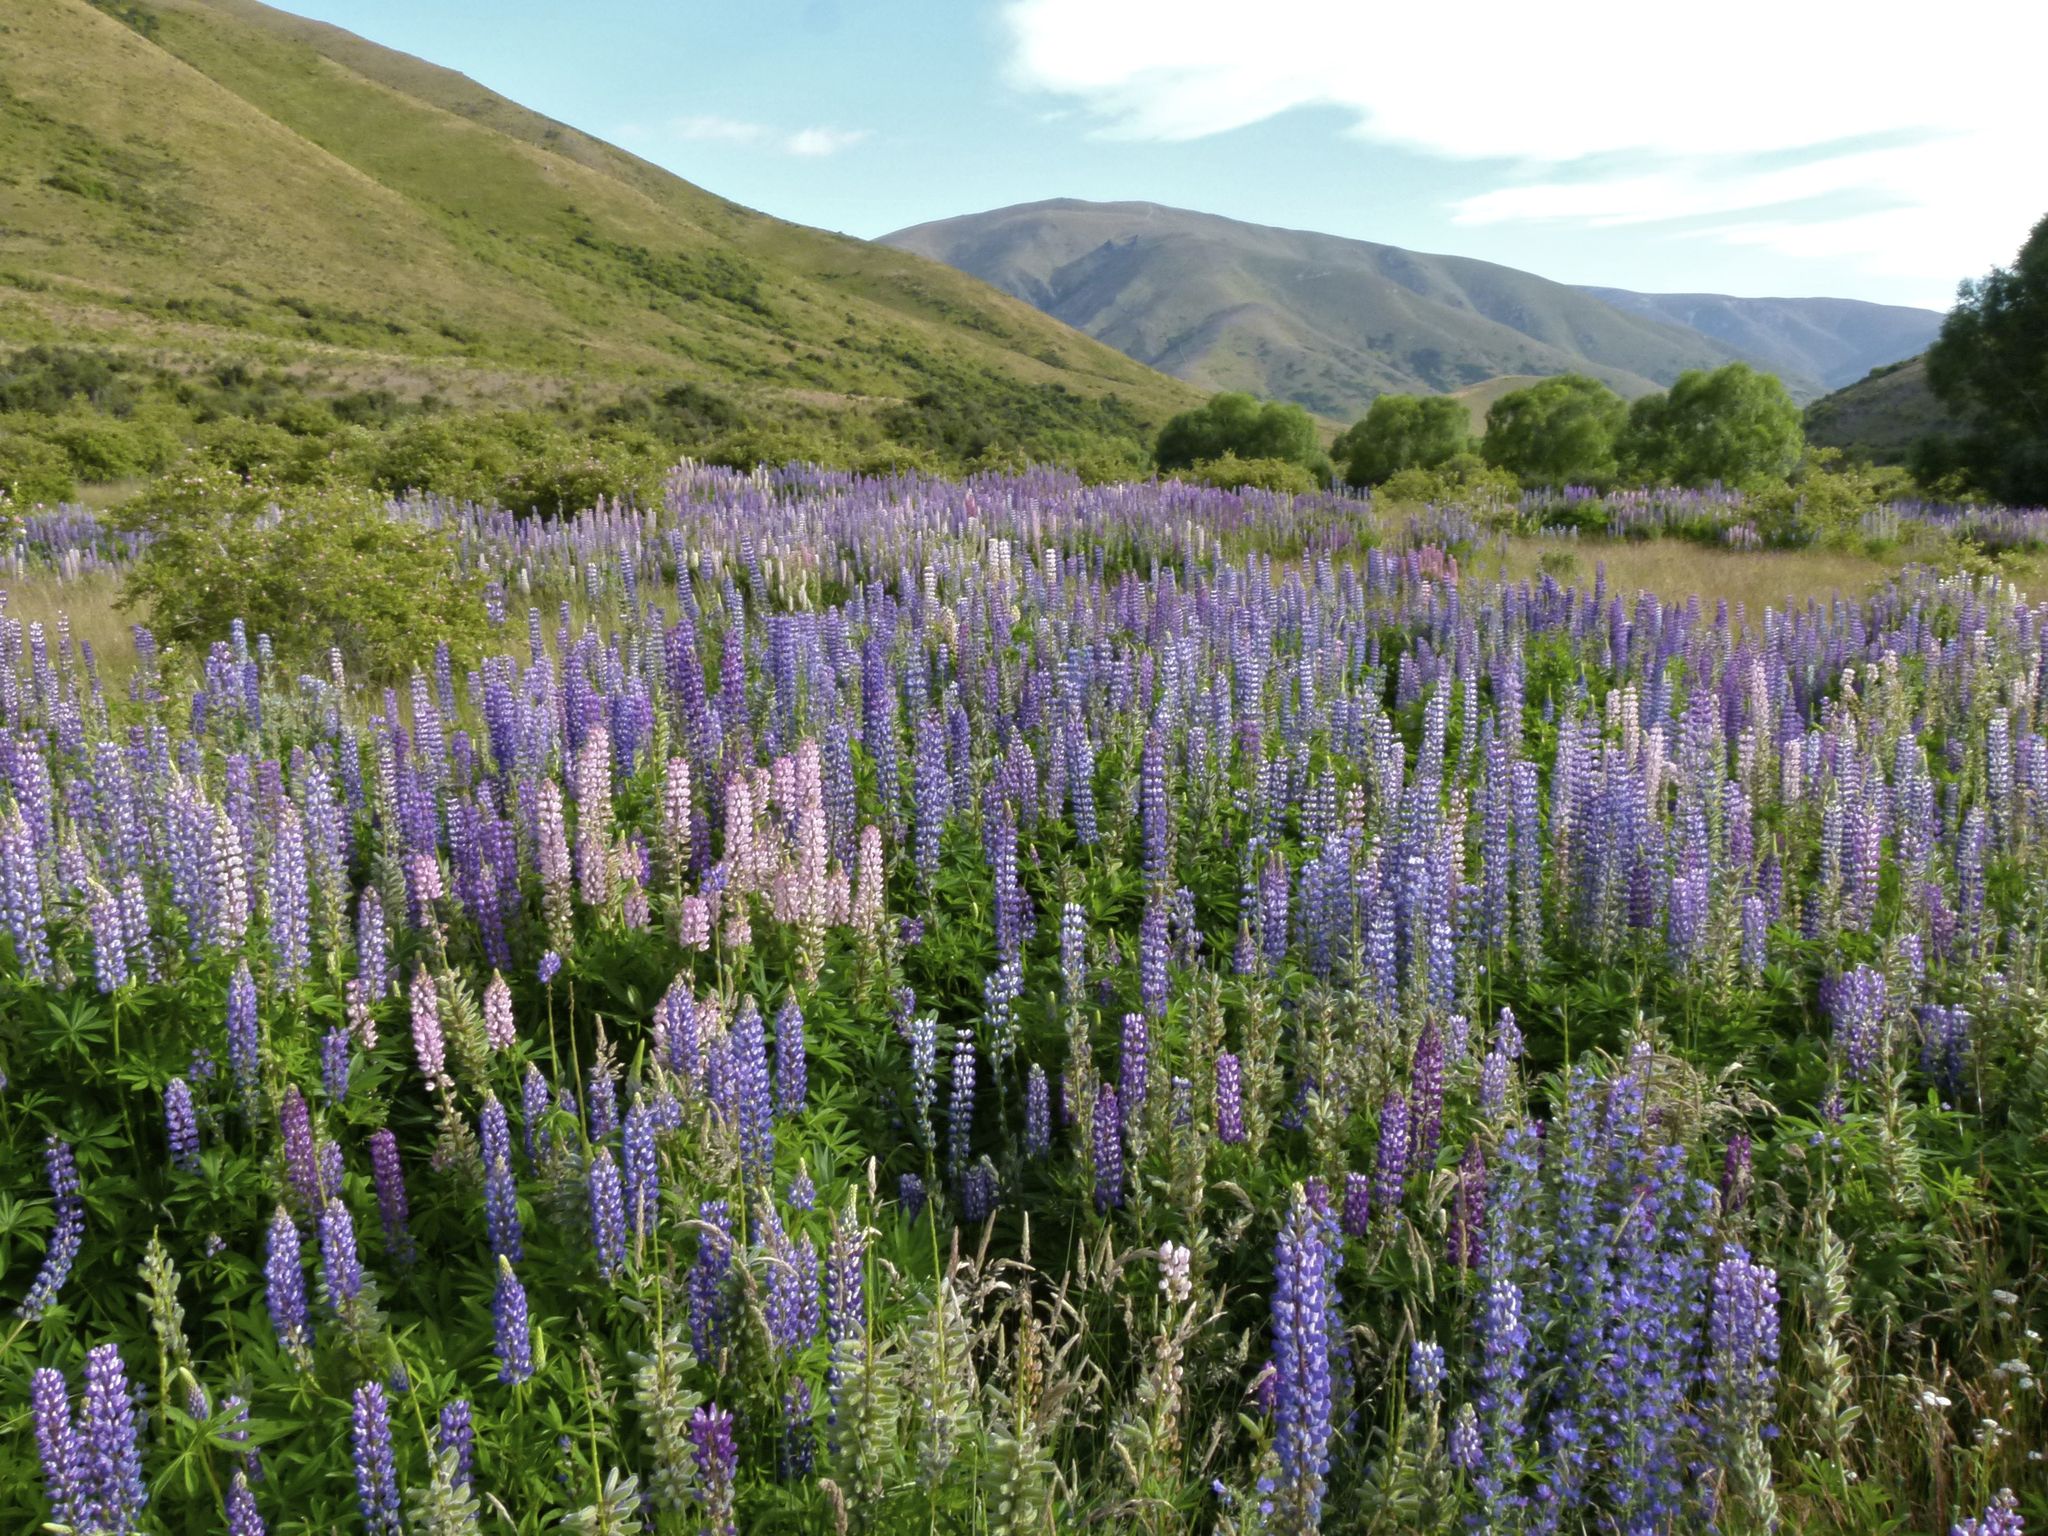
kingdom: Plantae
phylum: Tracheophyta
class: Magnoliopsida
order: Fabales
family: Fabaceae
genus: Lupinus
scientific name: Lupinus polyphyllus
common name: Garden lupin
